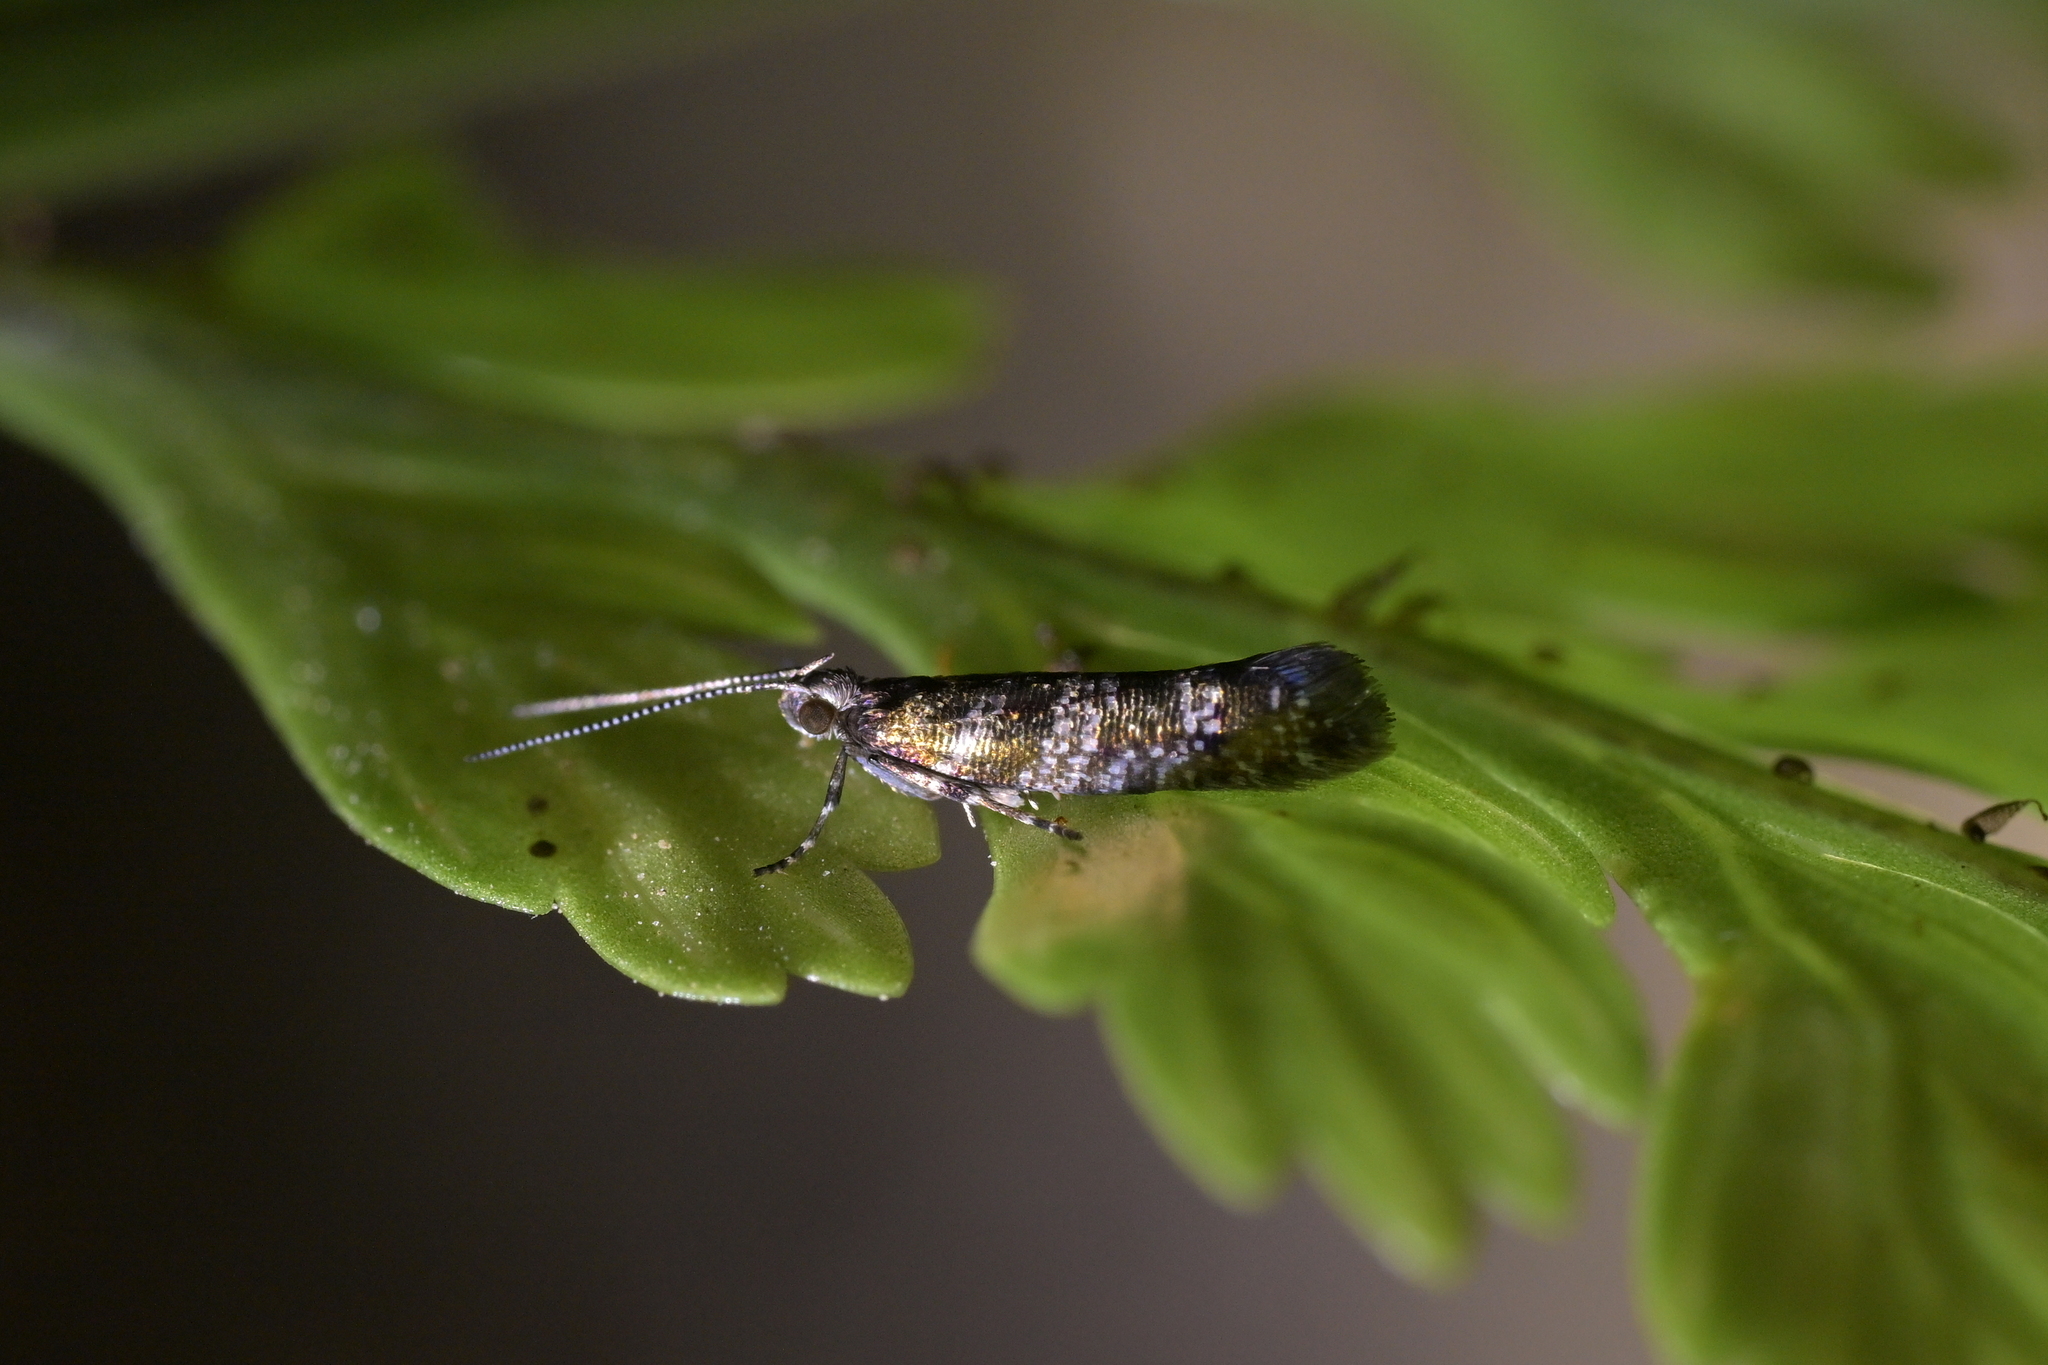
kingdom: Animalia
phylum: Arthropoda
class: Insecta
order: Lepidoptera
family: Glyphipterigidae
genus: Chrysorthenches
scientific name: Chrysorthenches drosochalca
